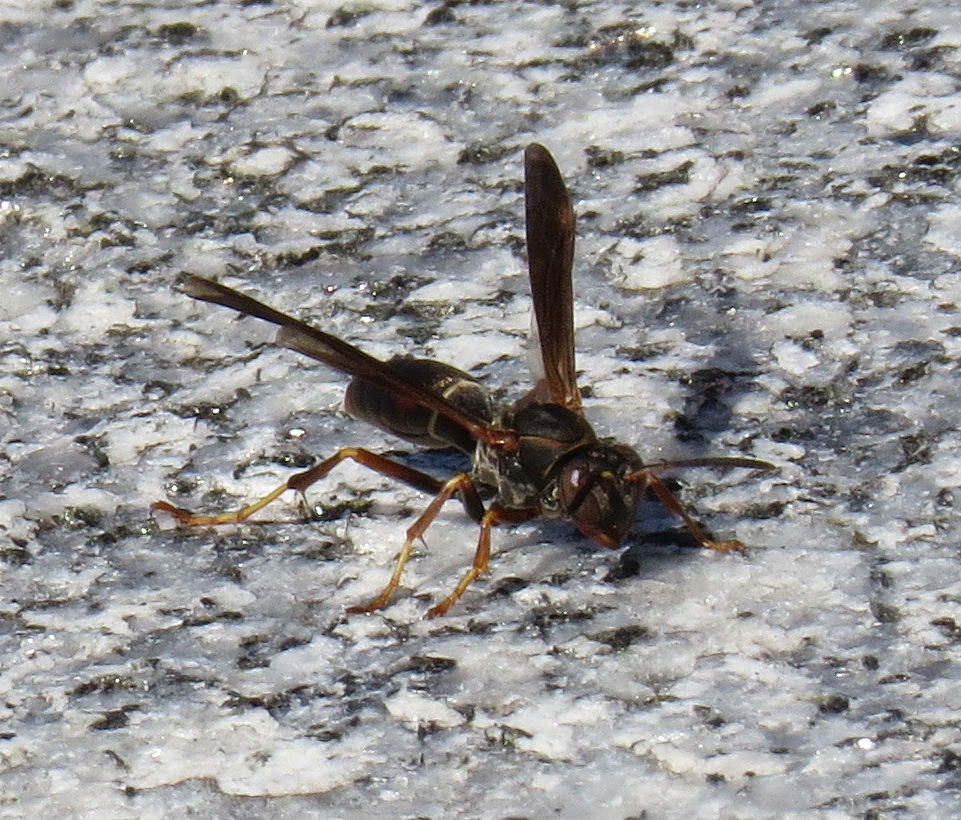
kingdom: Animalia
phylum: Arthropoda
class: Insecta
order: Hymenoptera
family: Eumenidae
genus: Polistes
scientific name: Polistes fuscatus
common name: Dark paper wasp
